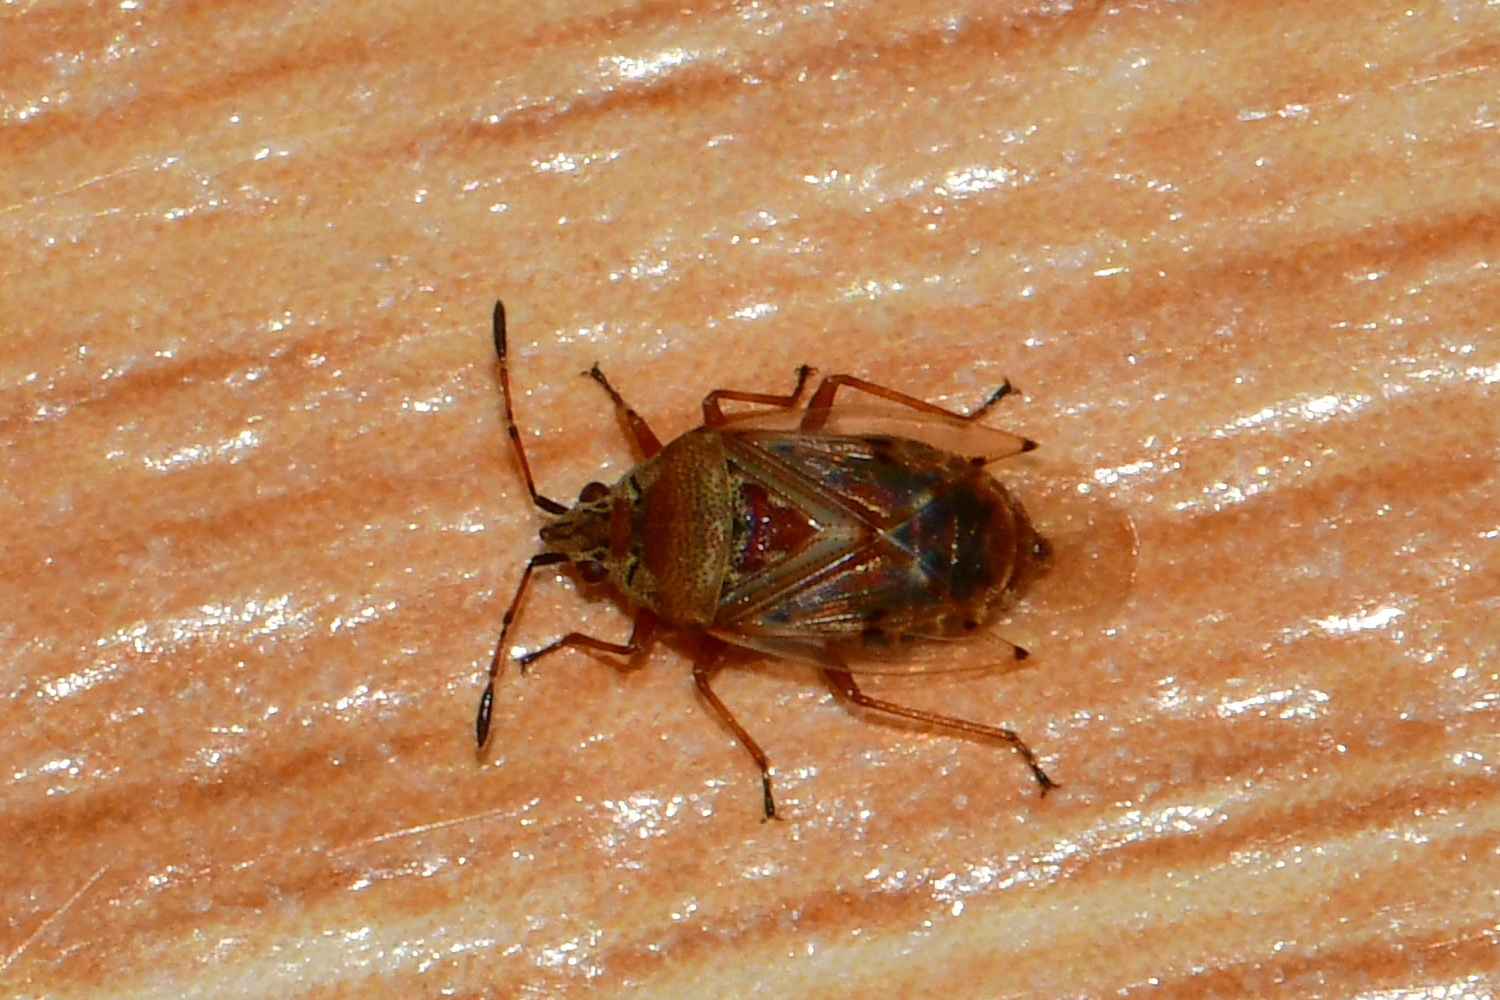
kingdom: Animalia
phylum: Arthropoda
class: Insecta
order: Hemiptera
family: Lygaeidae
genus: Kleidocerys
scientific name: Kleidocerys resedae
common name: Birch catkin bug
